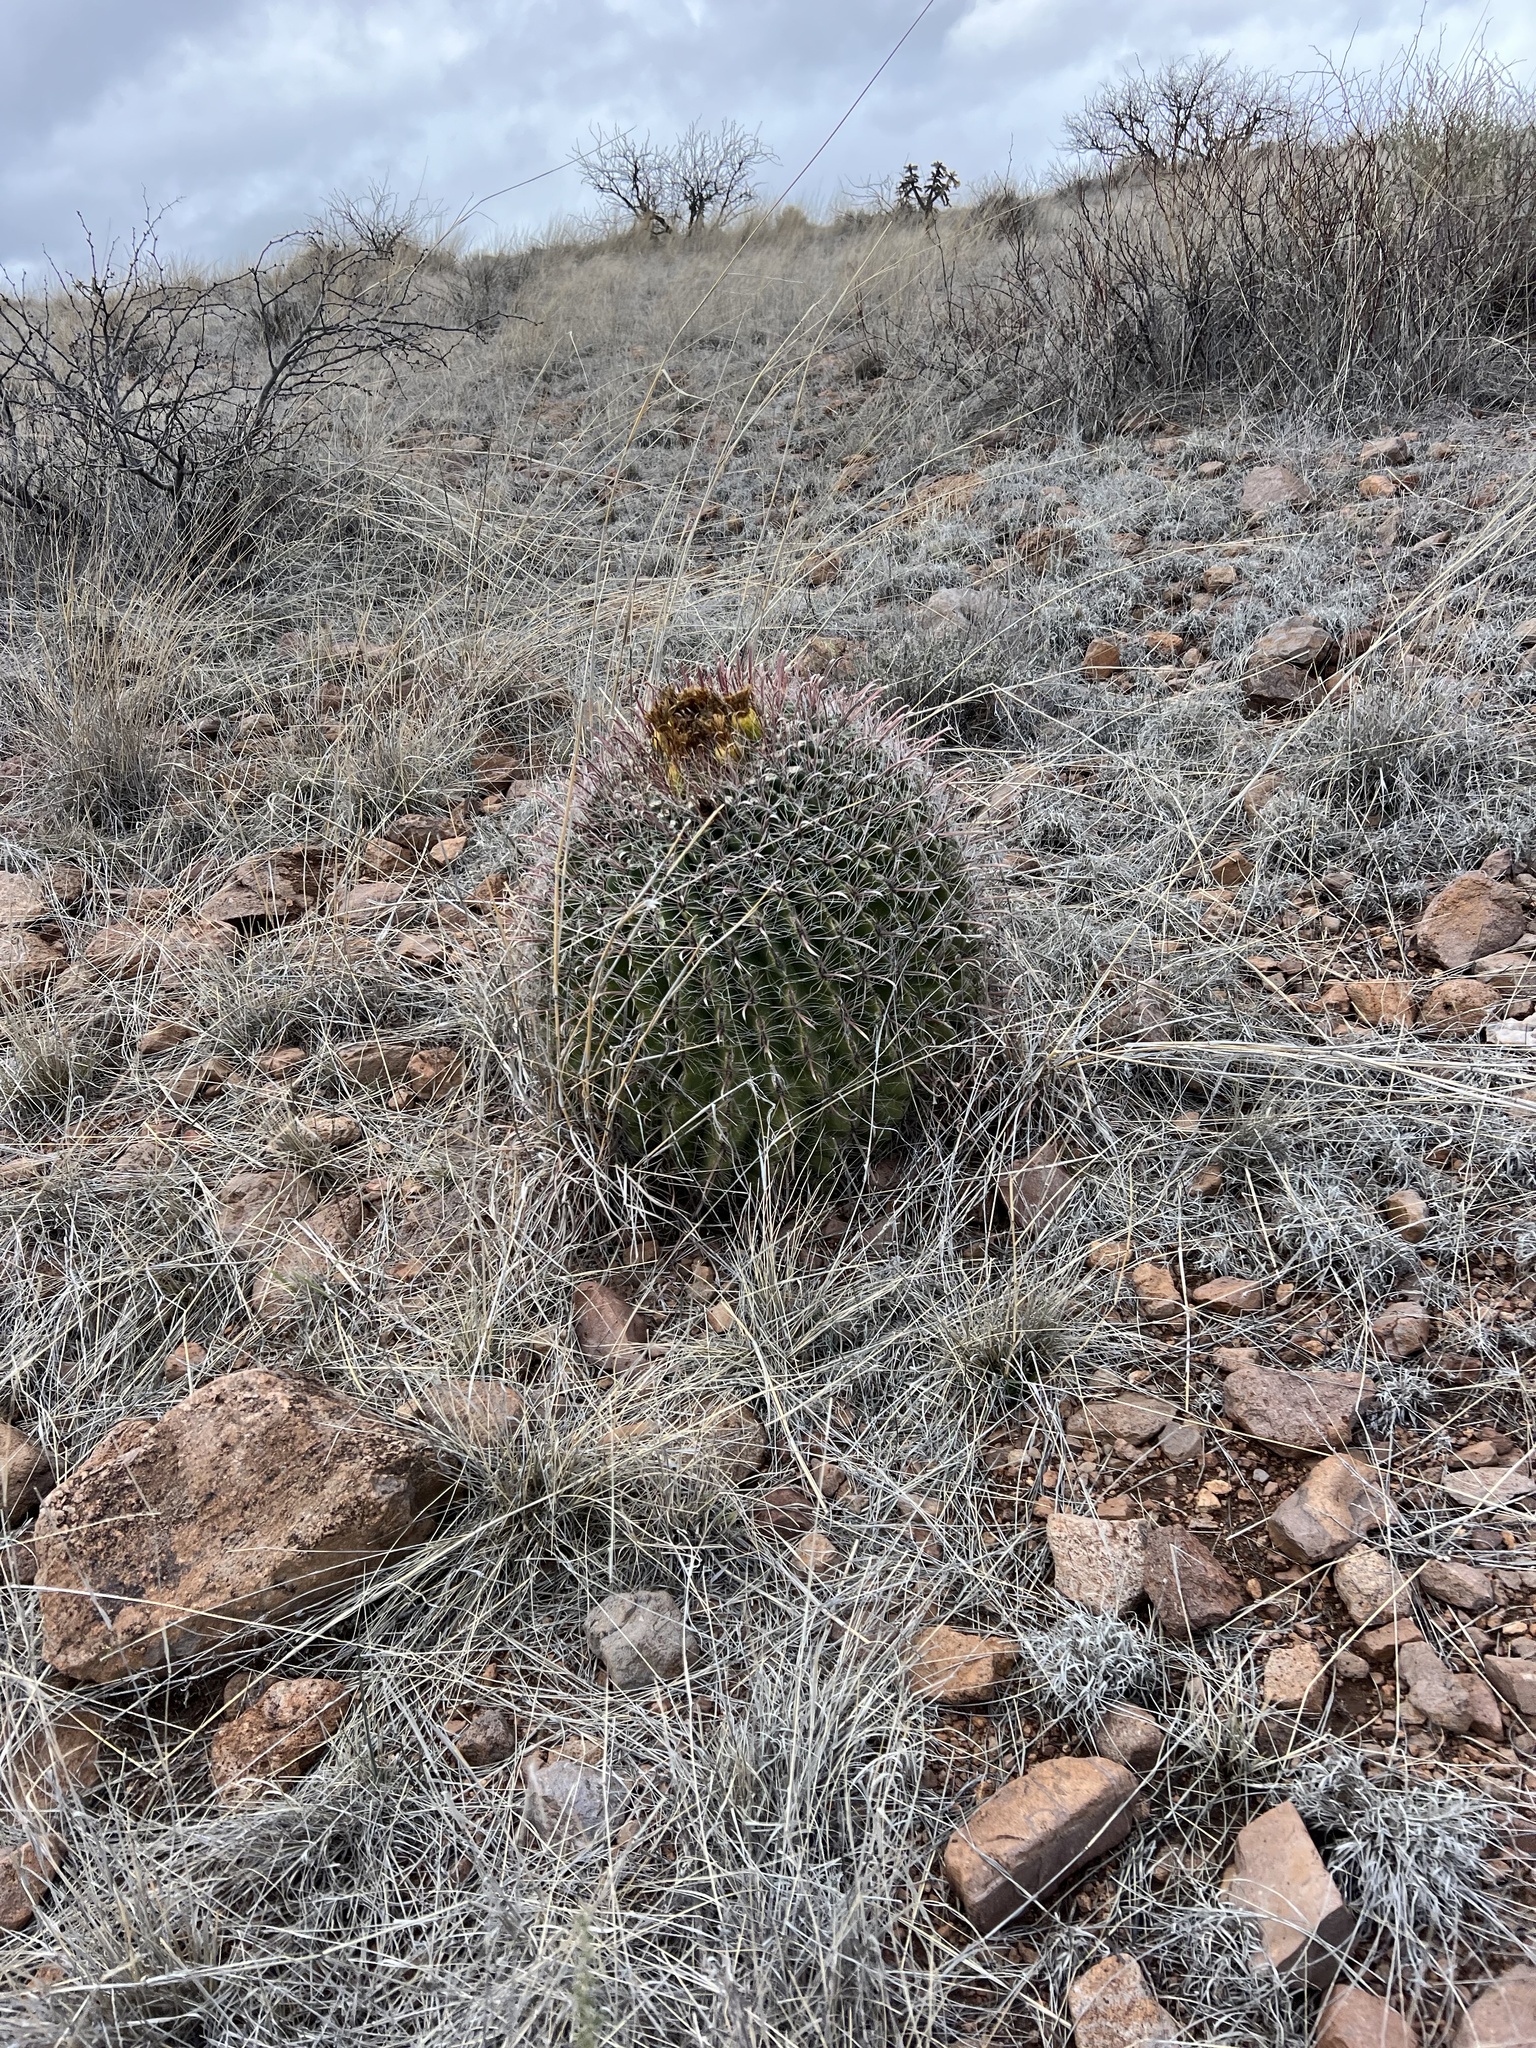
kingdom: Plantae
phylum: Tracheophyta
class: Magnoliopsida
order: Caryophyllales
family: Cactaceae
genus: Ferocactus
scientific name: Ferocactus wislizeni
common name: Candy barrel cactus
